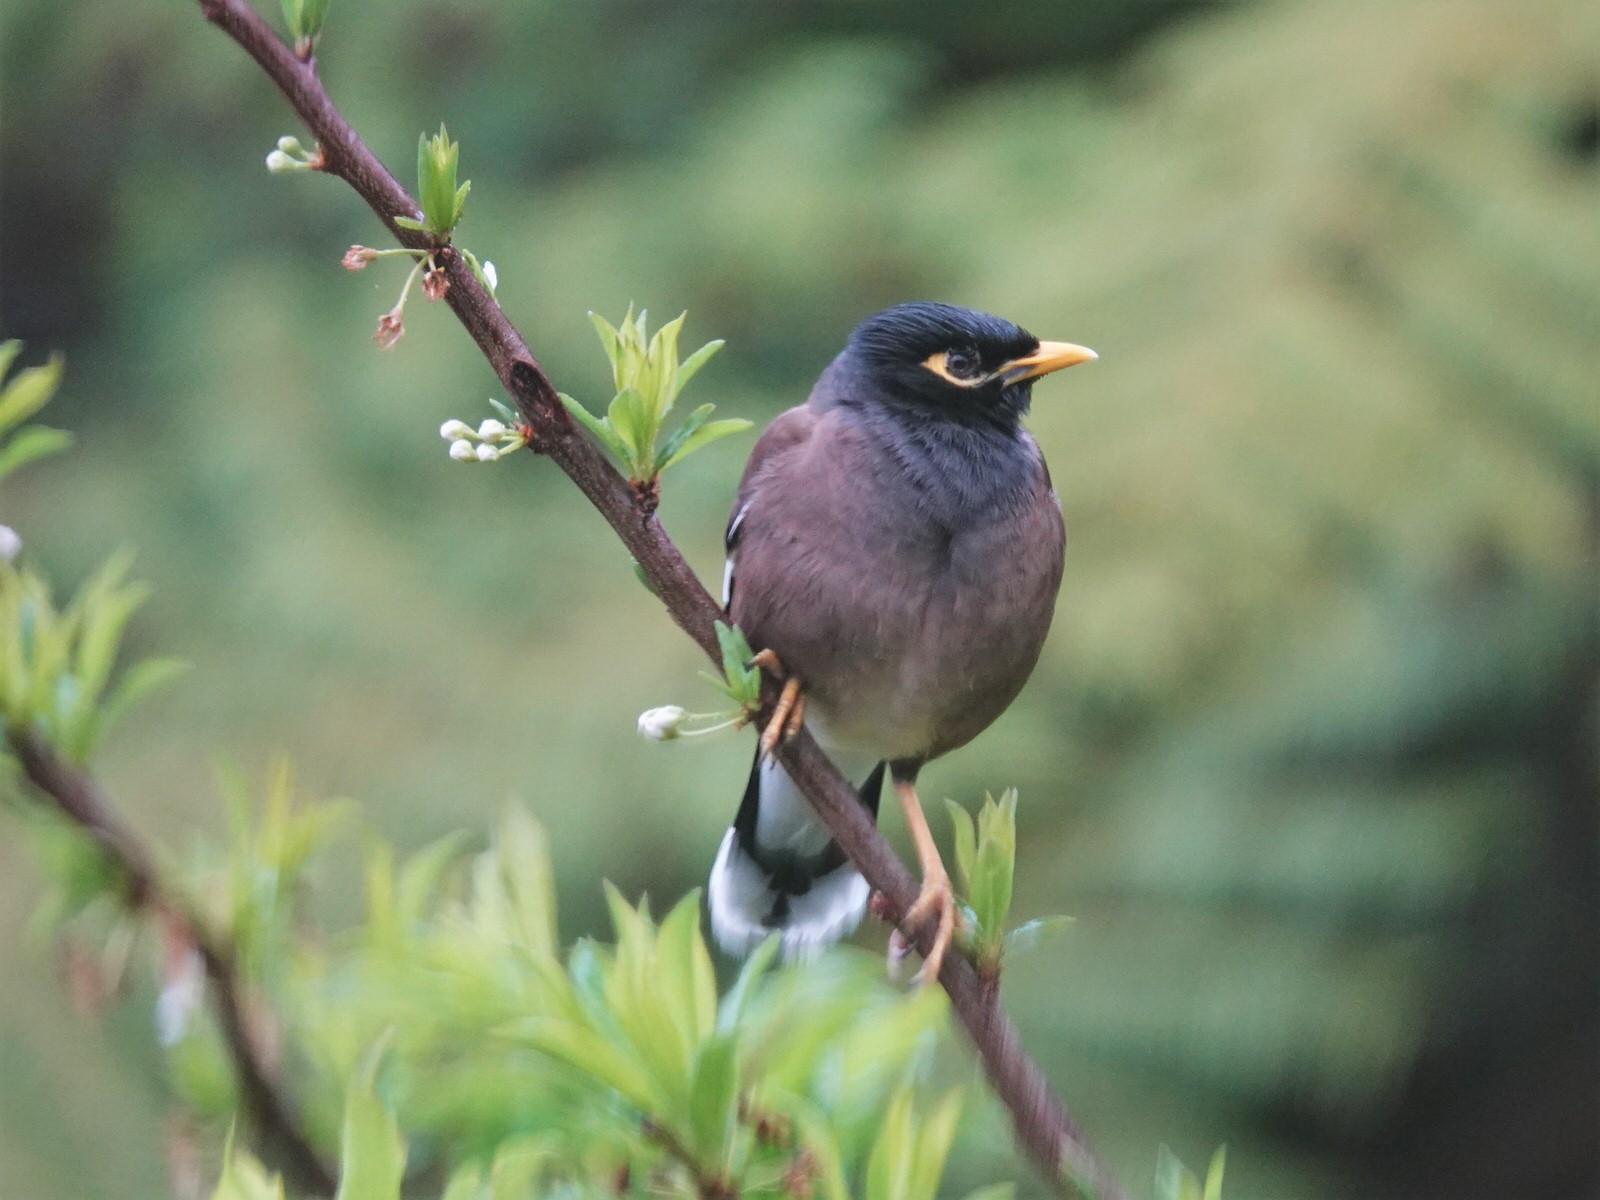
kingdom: Animalia
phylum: Chordata
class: Aves
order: Passeriformes
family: Sturnidae
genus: Acridotheres
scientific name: Acridotheres tristis
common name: Common myna
